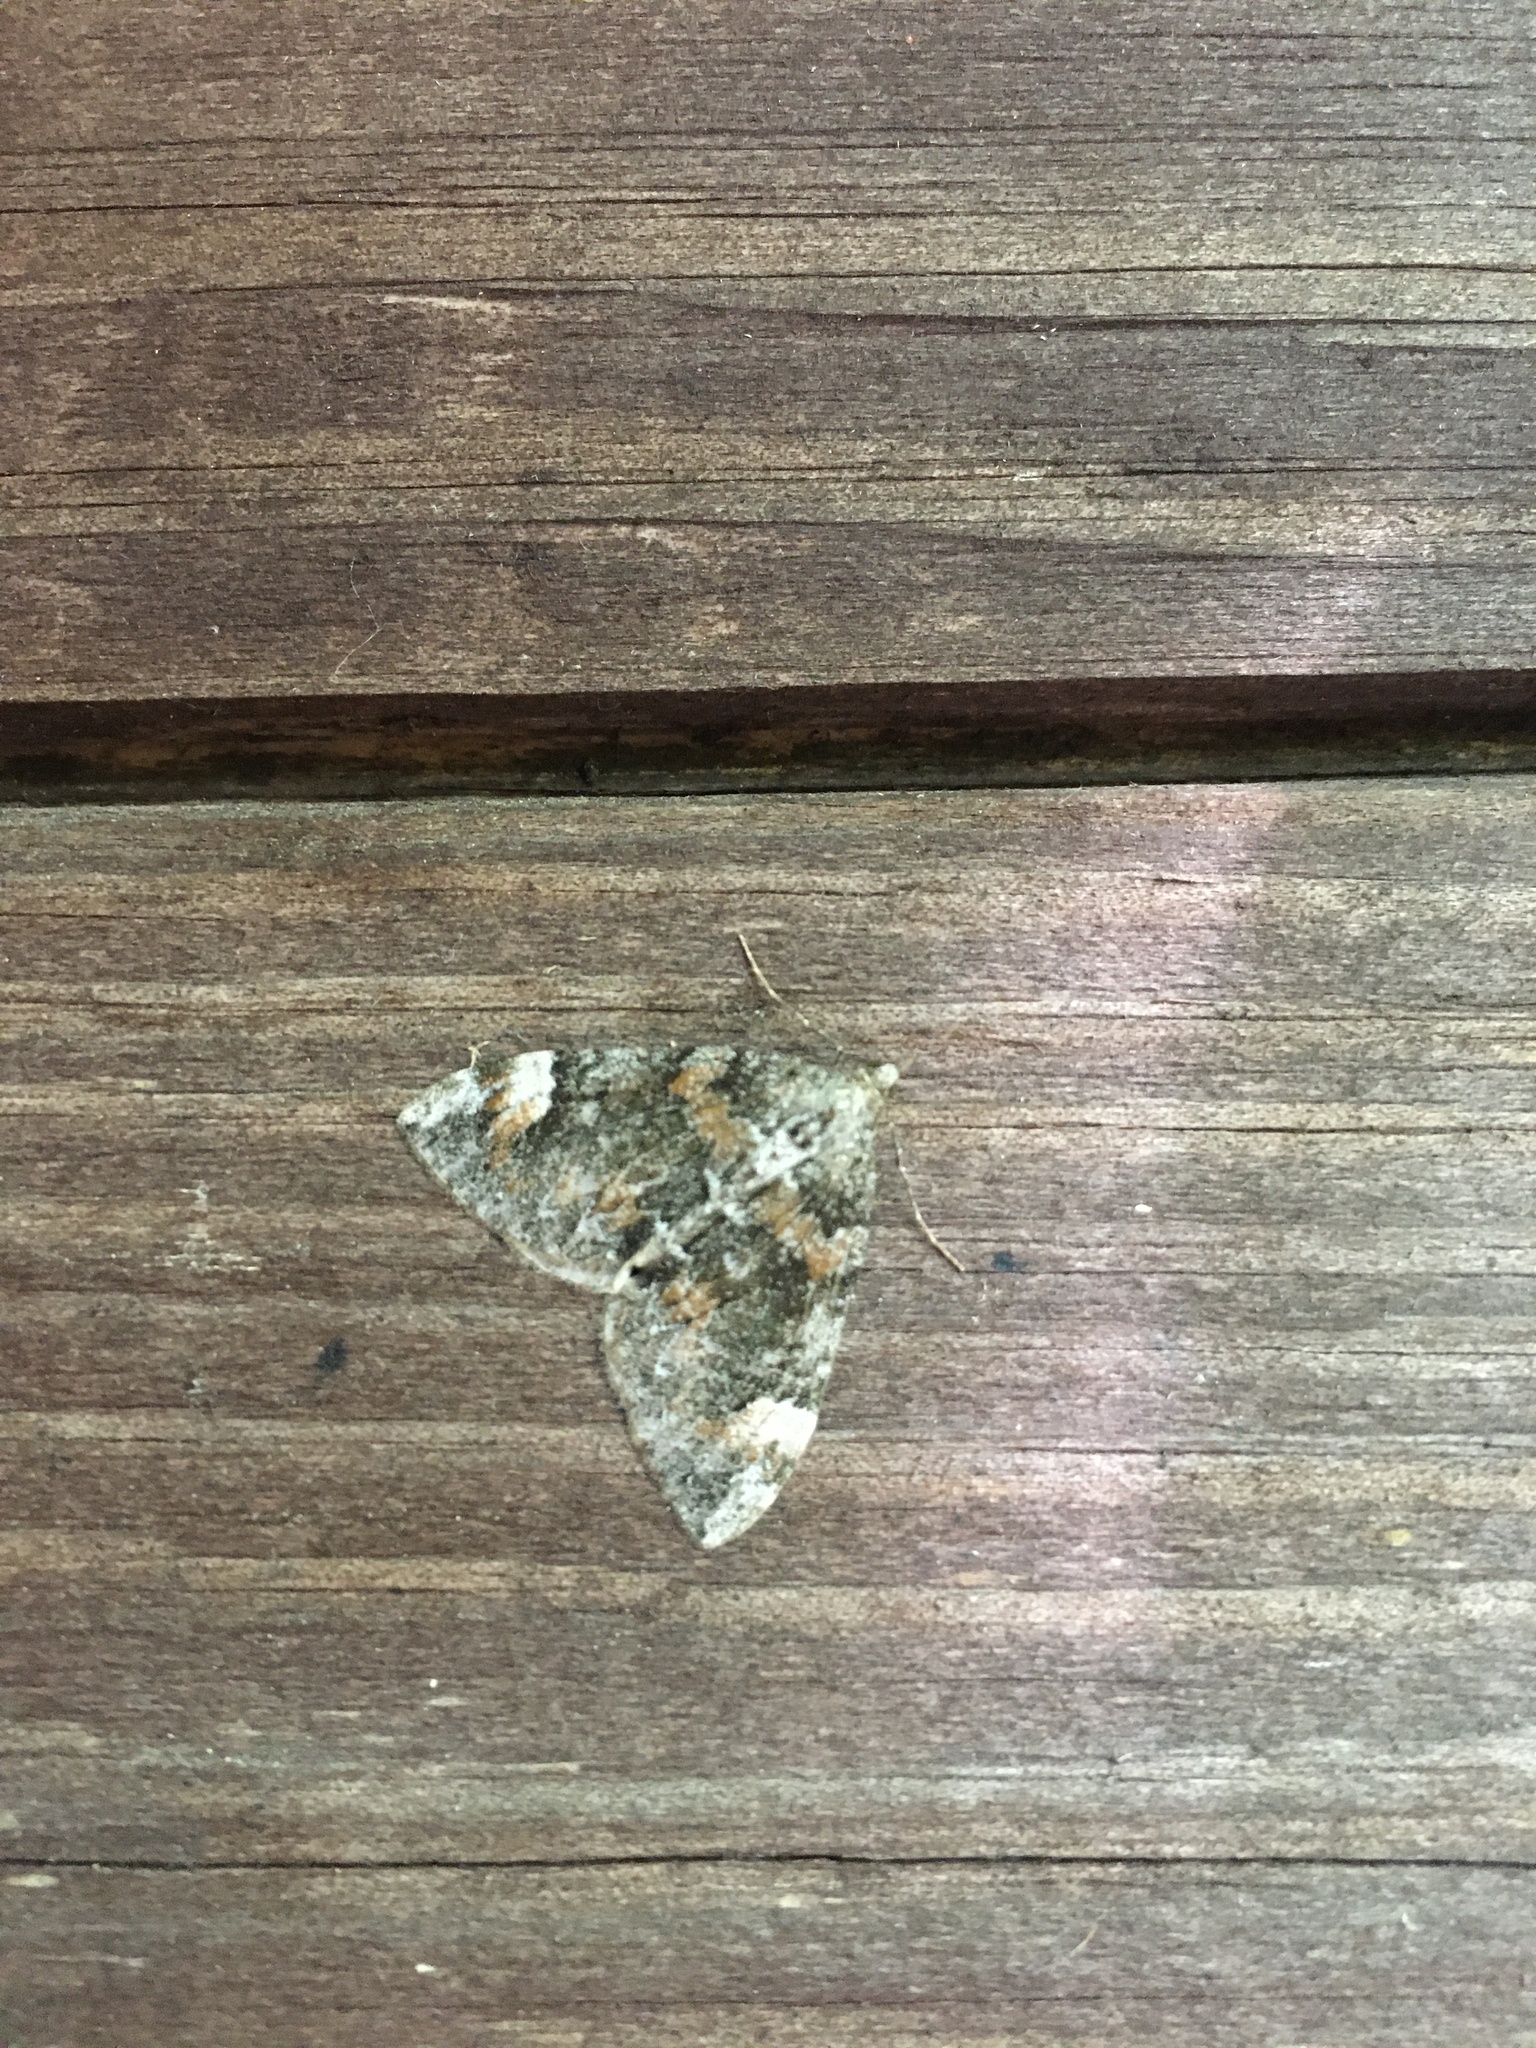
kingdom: Animalia
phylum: Arthropoda
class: Insecta
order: Lepidoptera
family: Geometridae
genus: Dysstroma
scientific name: Dysstroma citrata
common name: Dark marbled carpet
